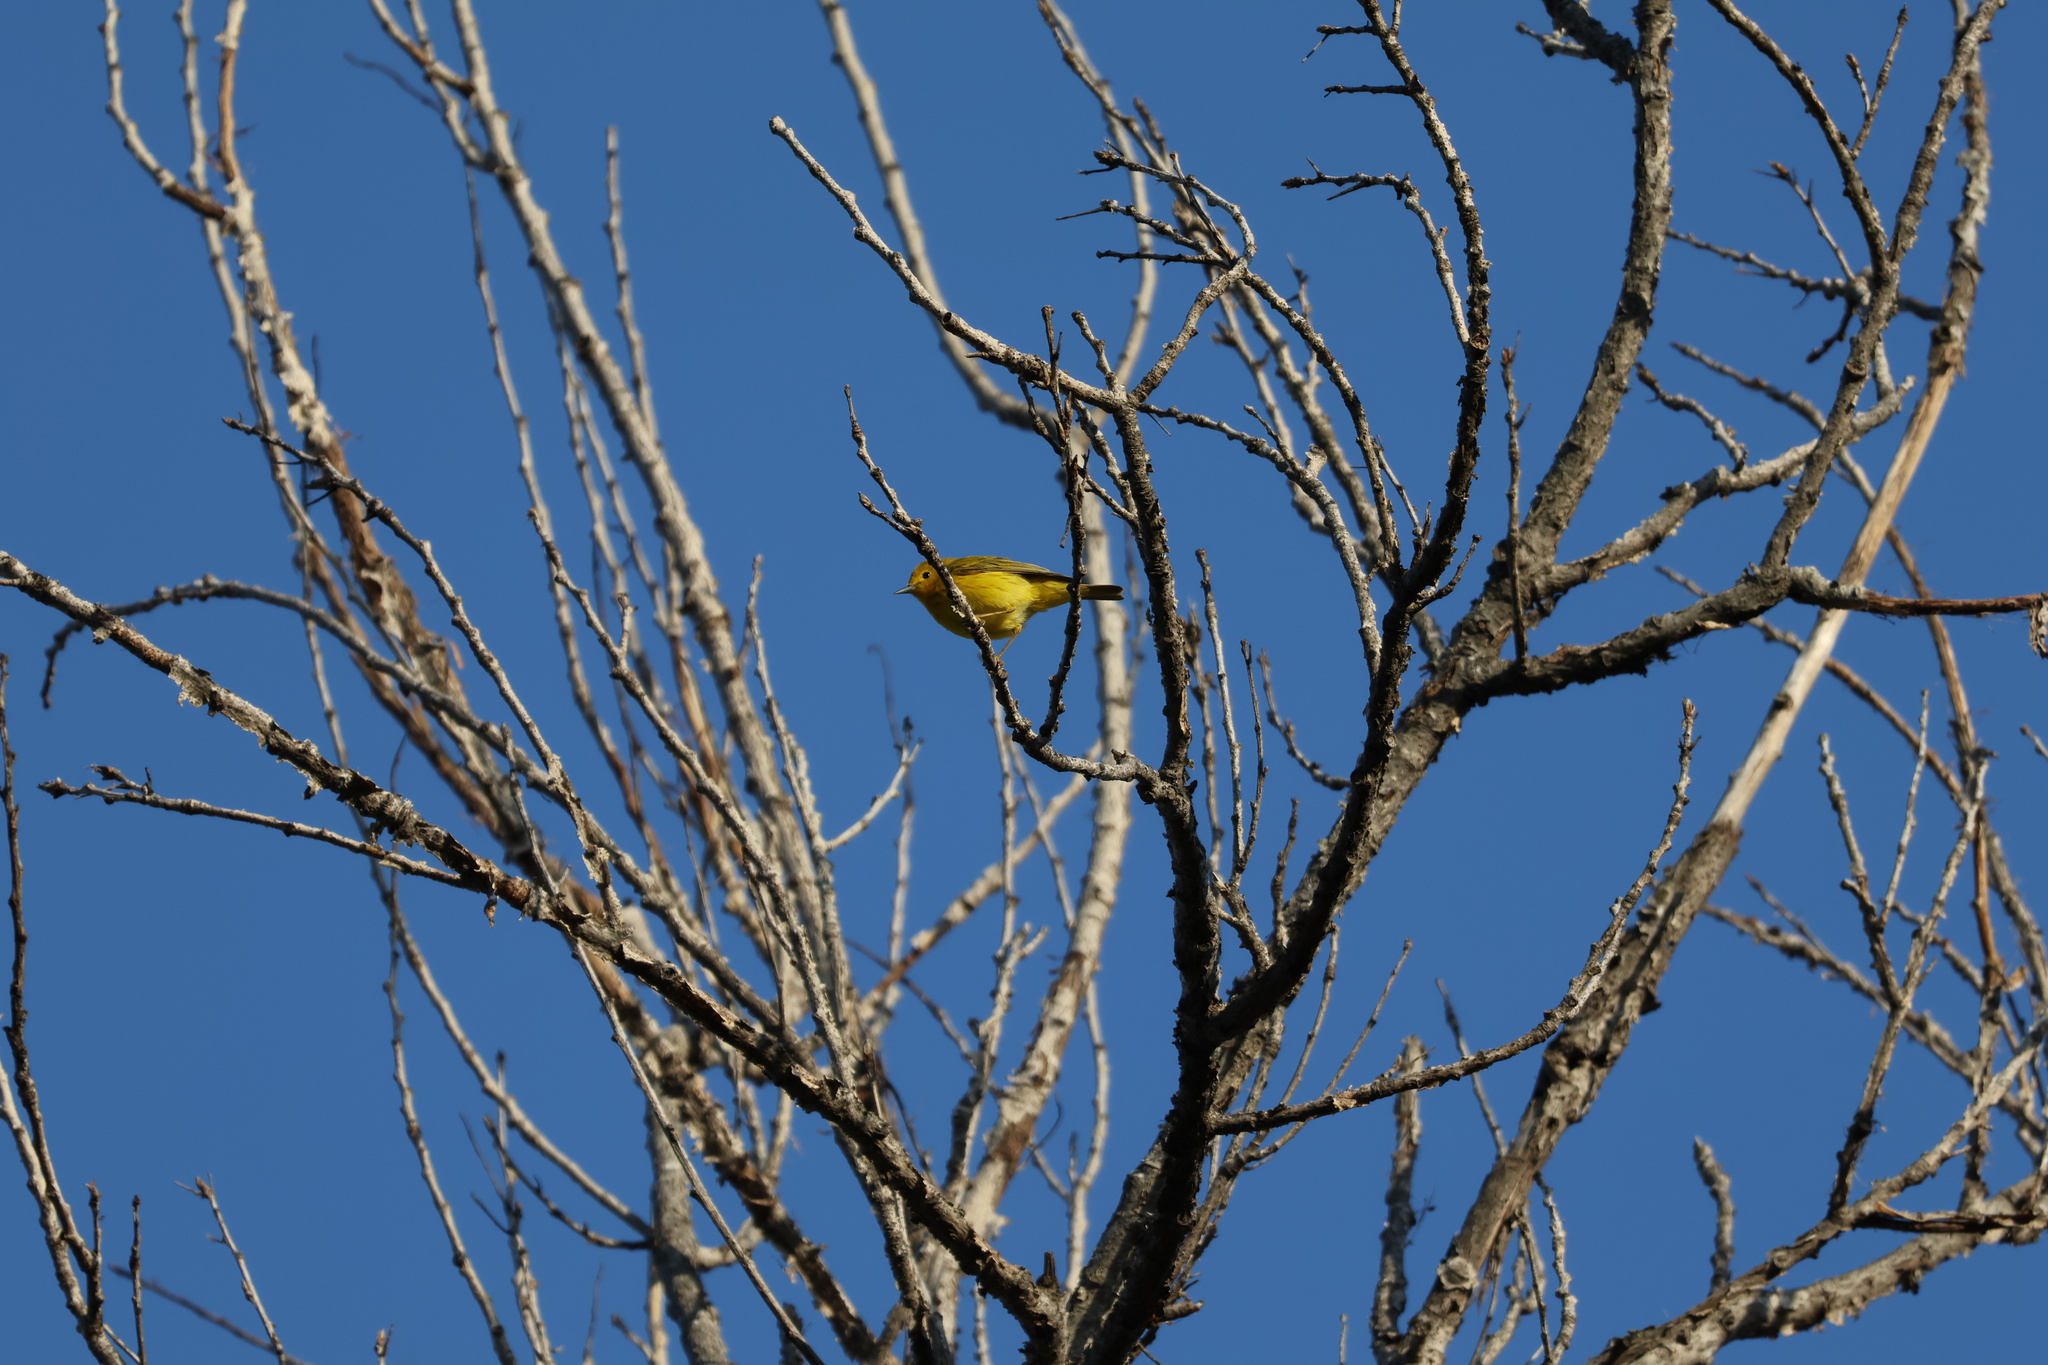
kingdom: Animalia
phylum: Chordata
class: Aves
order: Passeriformes
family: Parulidae
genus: Setophaga
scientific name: Setophaga petechia
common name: Yellow warbler
